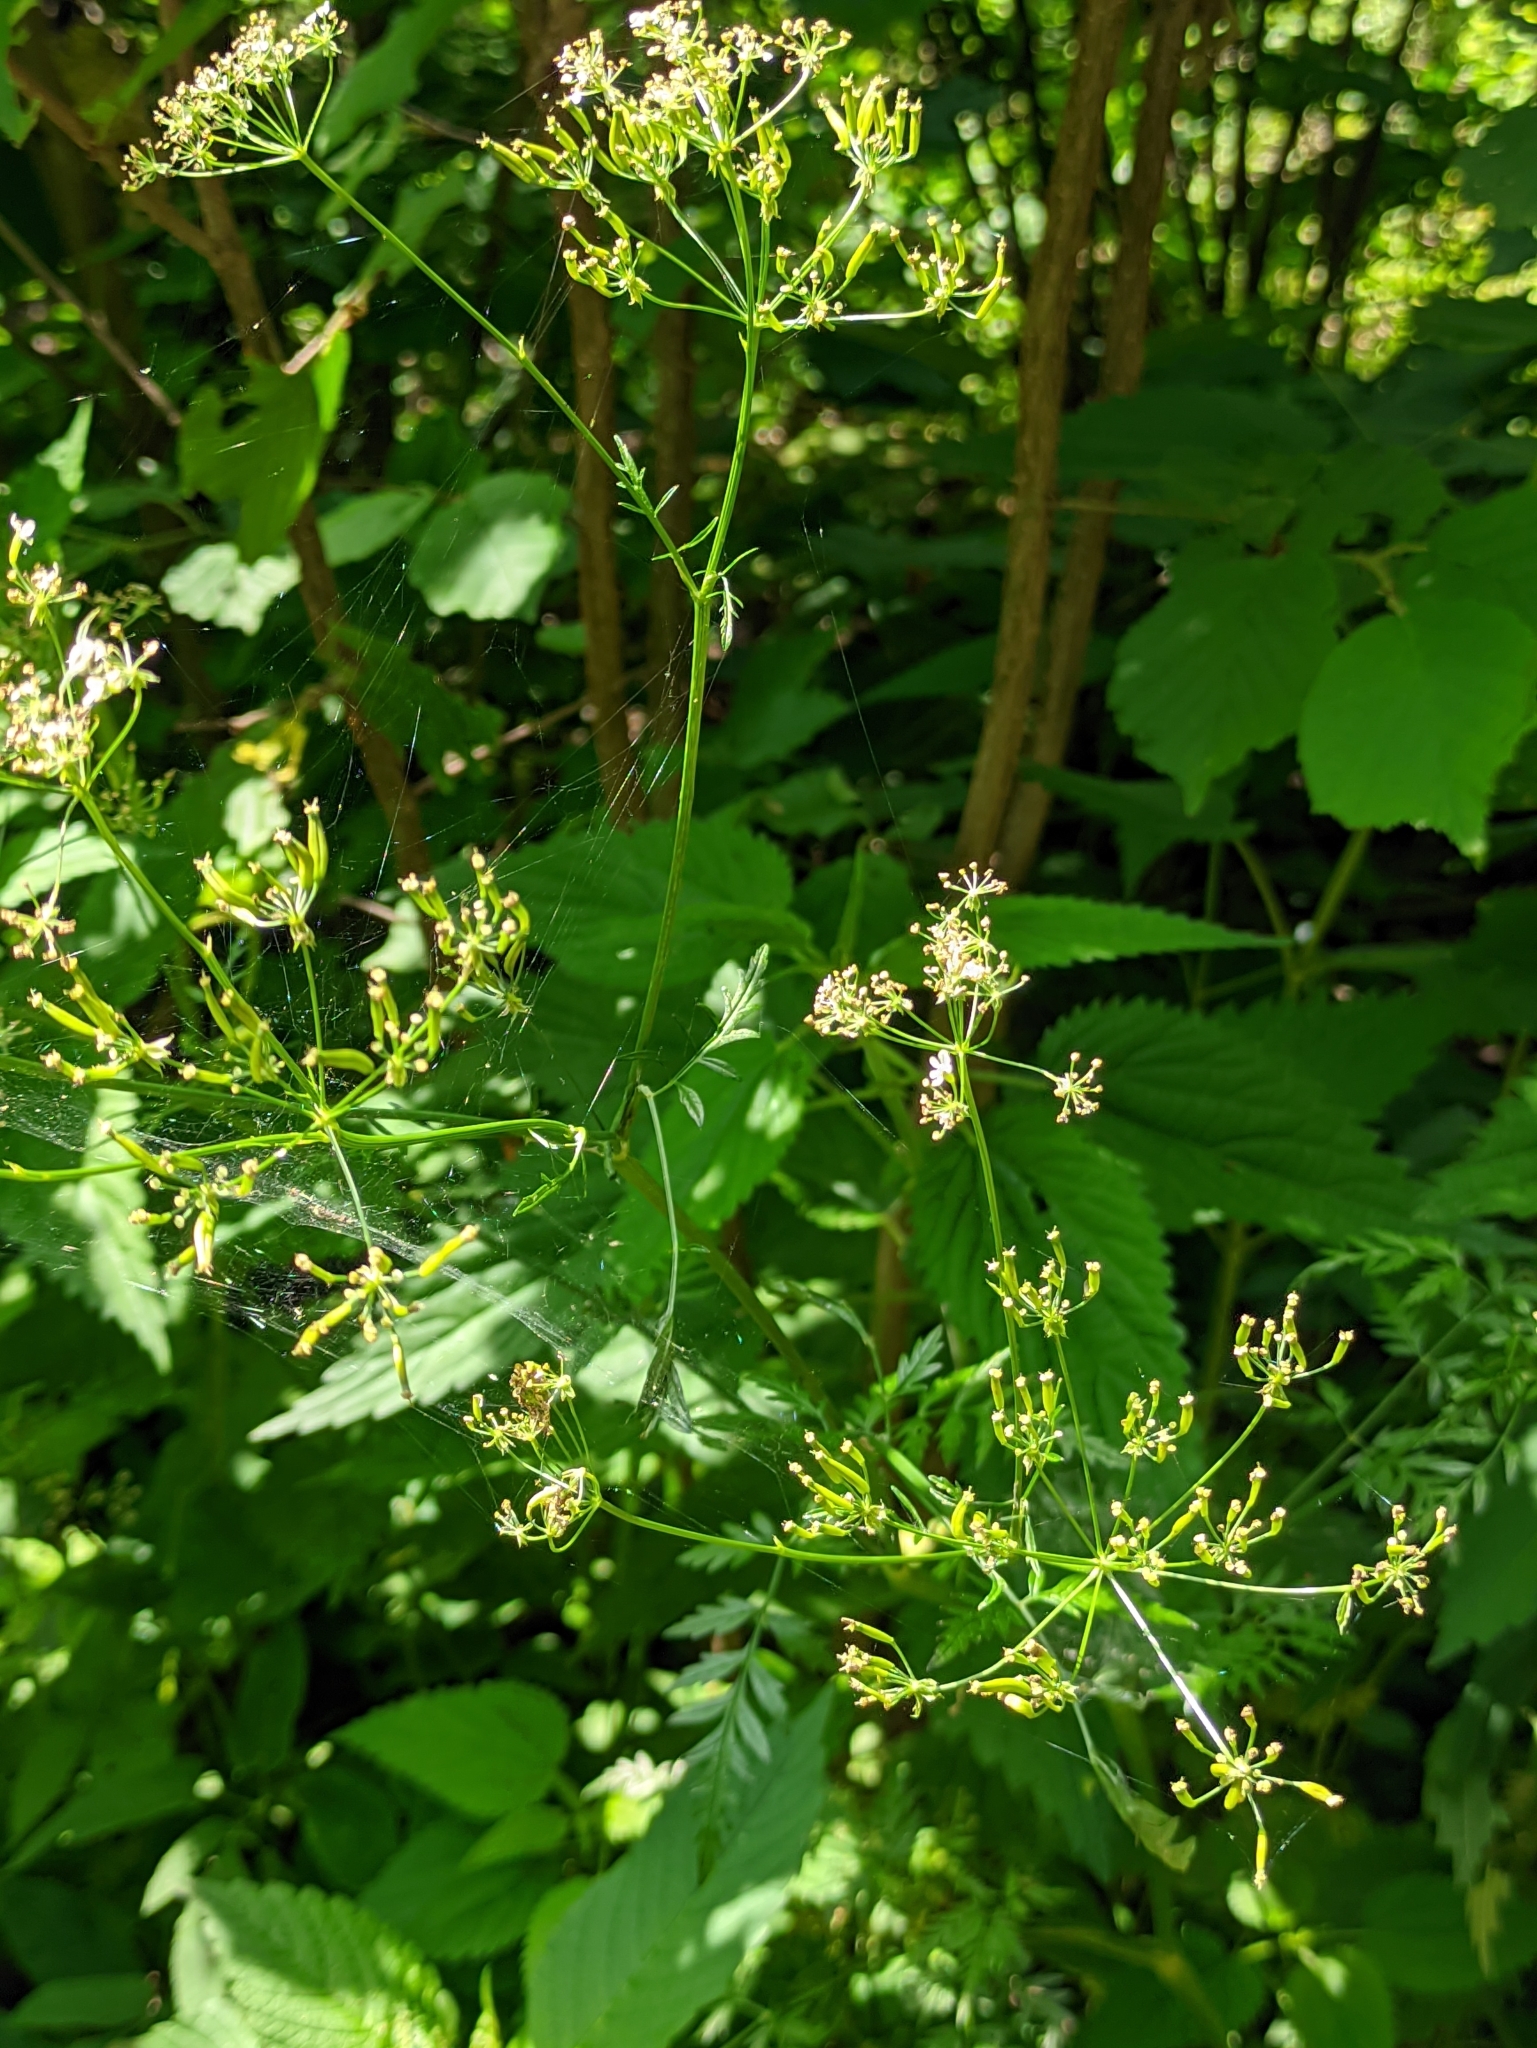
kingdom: Plantae
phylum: Tracheophyta
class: Magnoliopsida
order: Apiales
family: Apiaceae
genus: Anthriscus
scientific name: Anthriscus sylvestris
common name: Cow parsley
